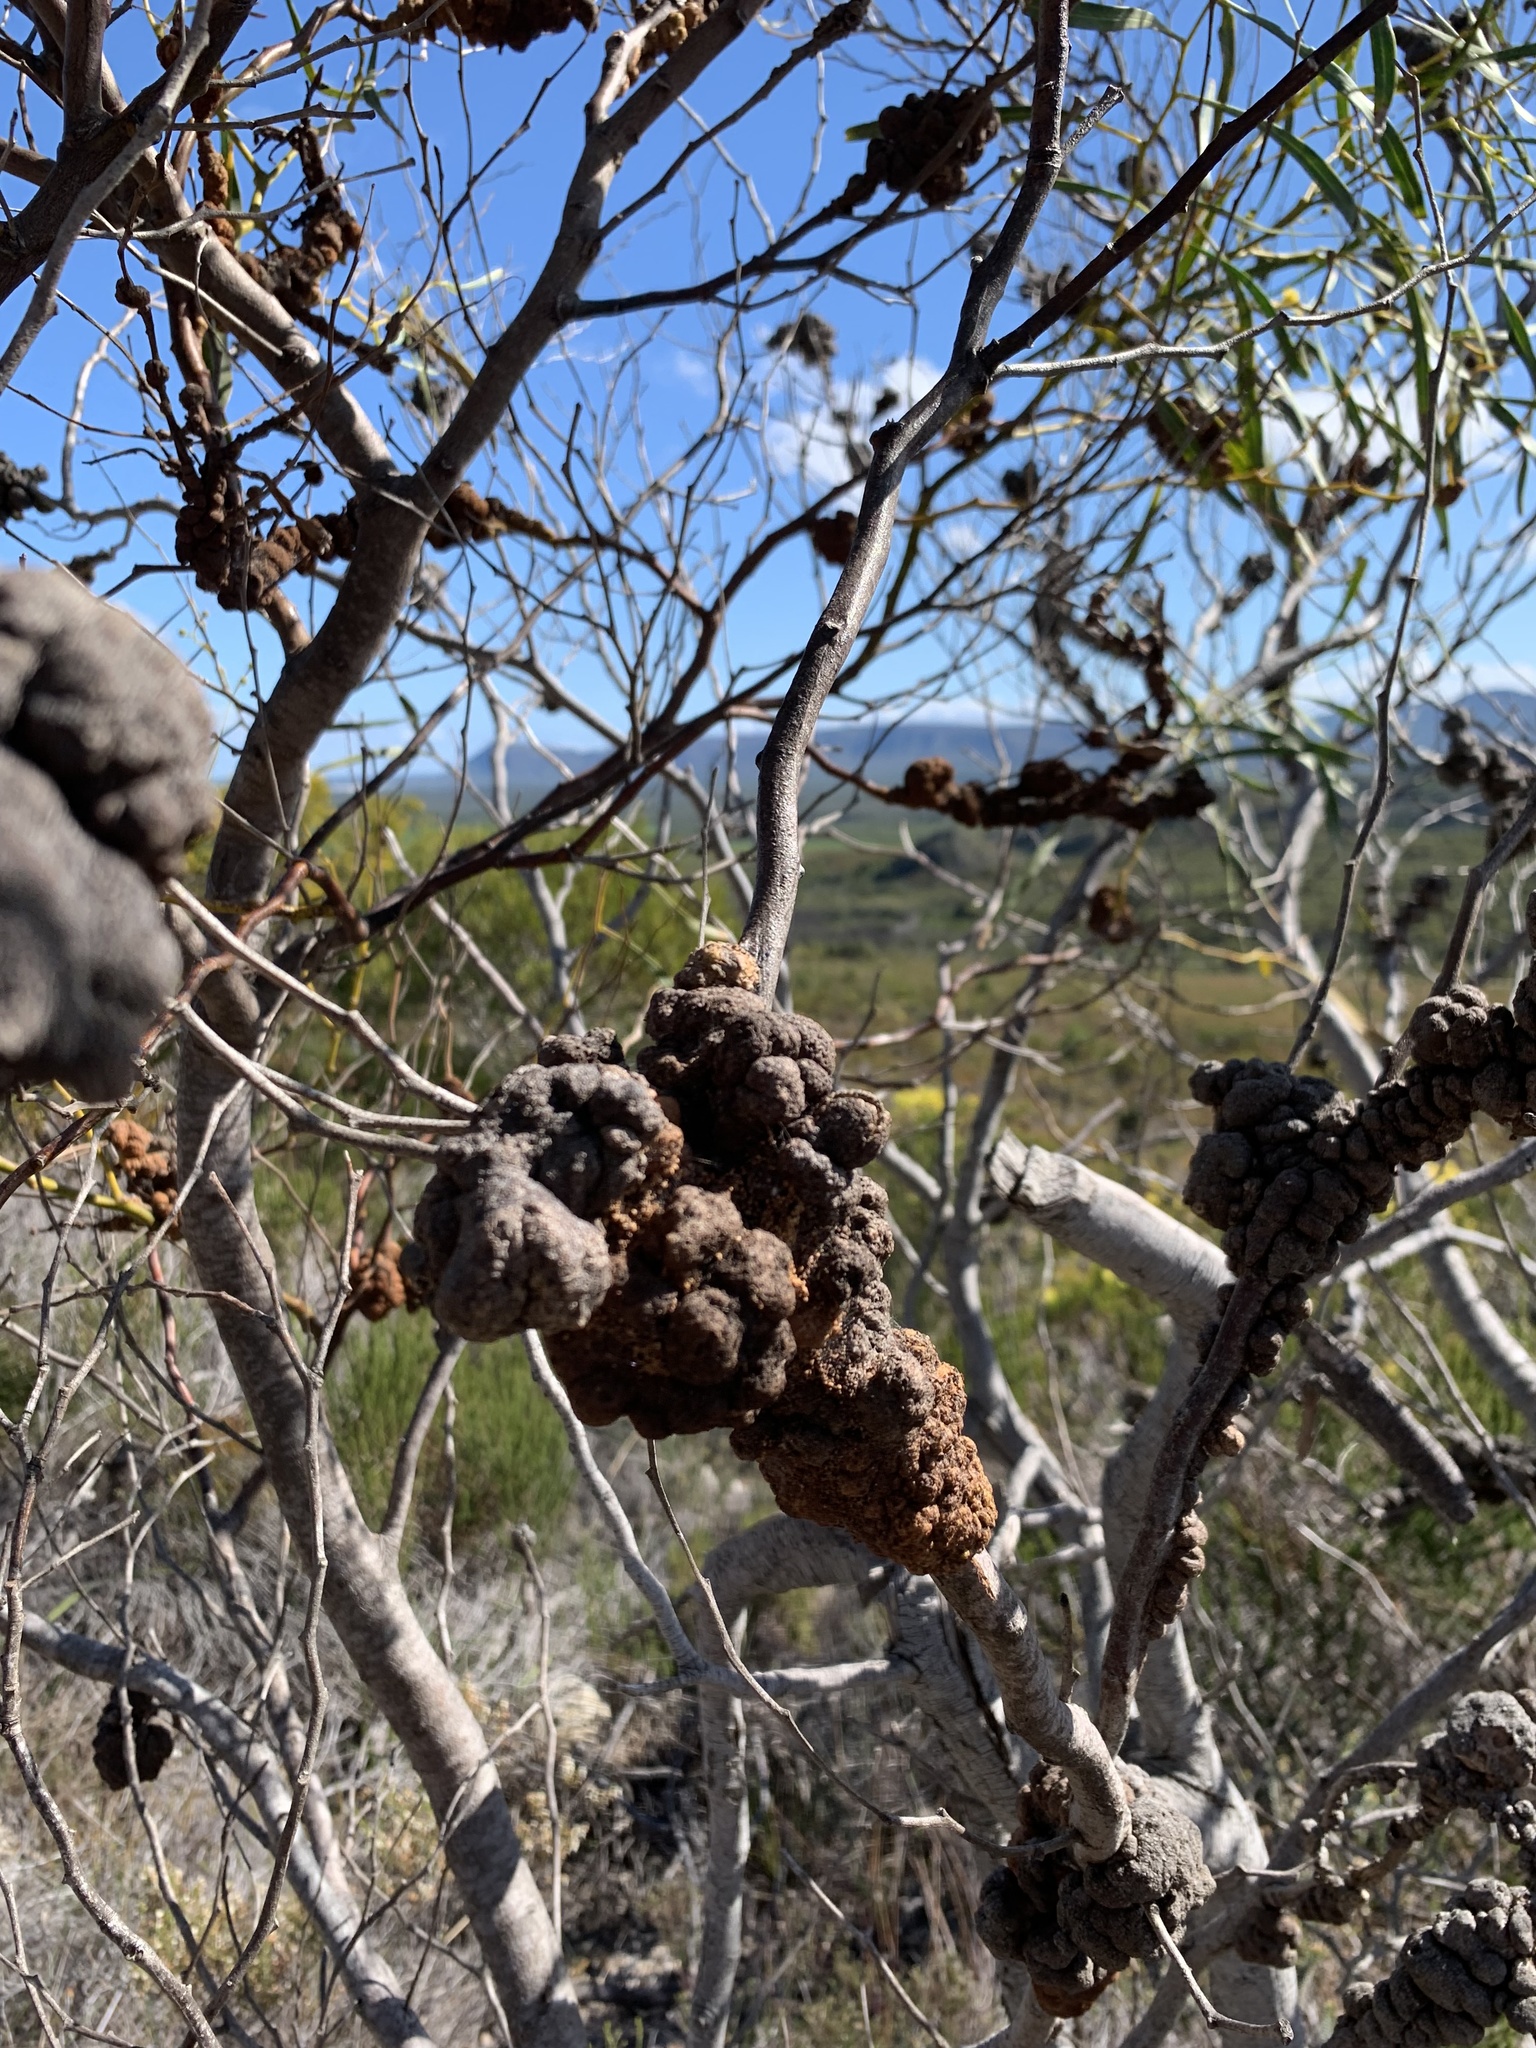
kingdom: Fungi
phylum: Basidiomycota
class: Pucciniomycetes
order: Pucciniales
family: Uromycladiaceae
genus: Uromycladium
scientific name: Uromycladium morrisii
